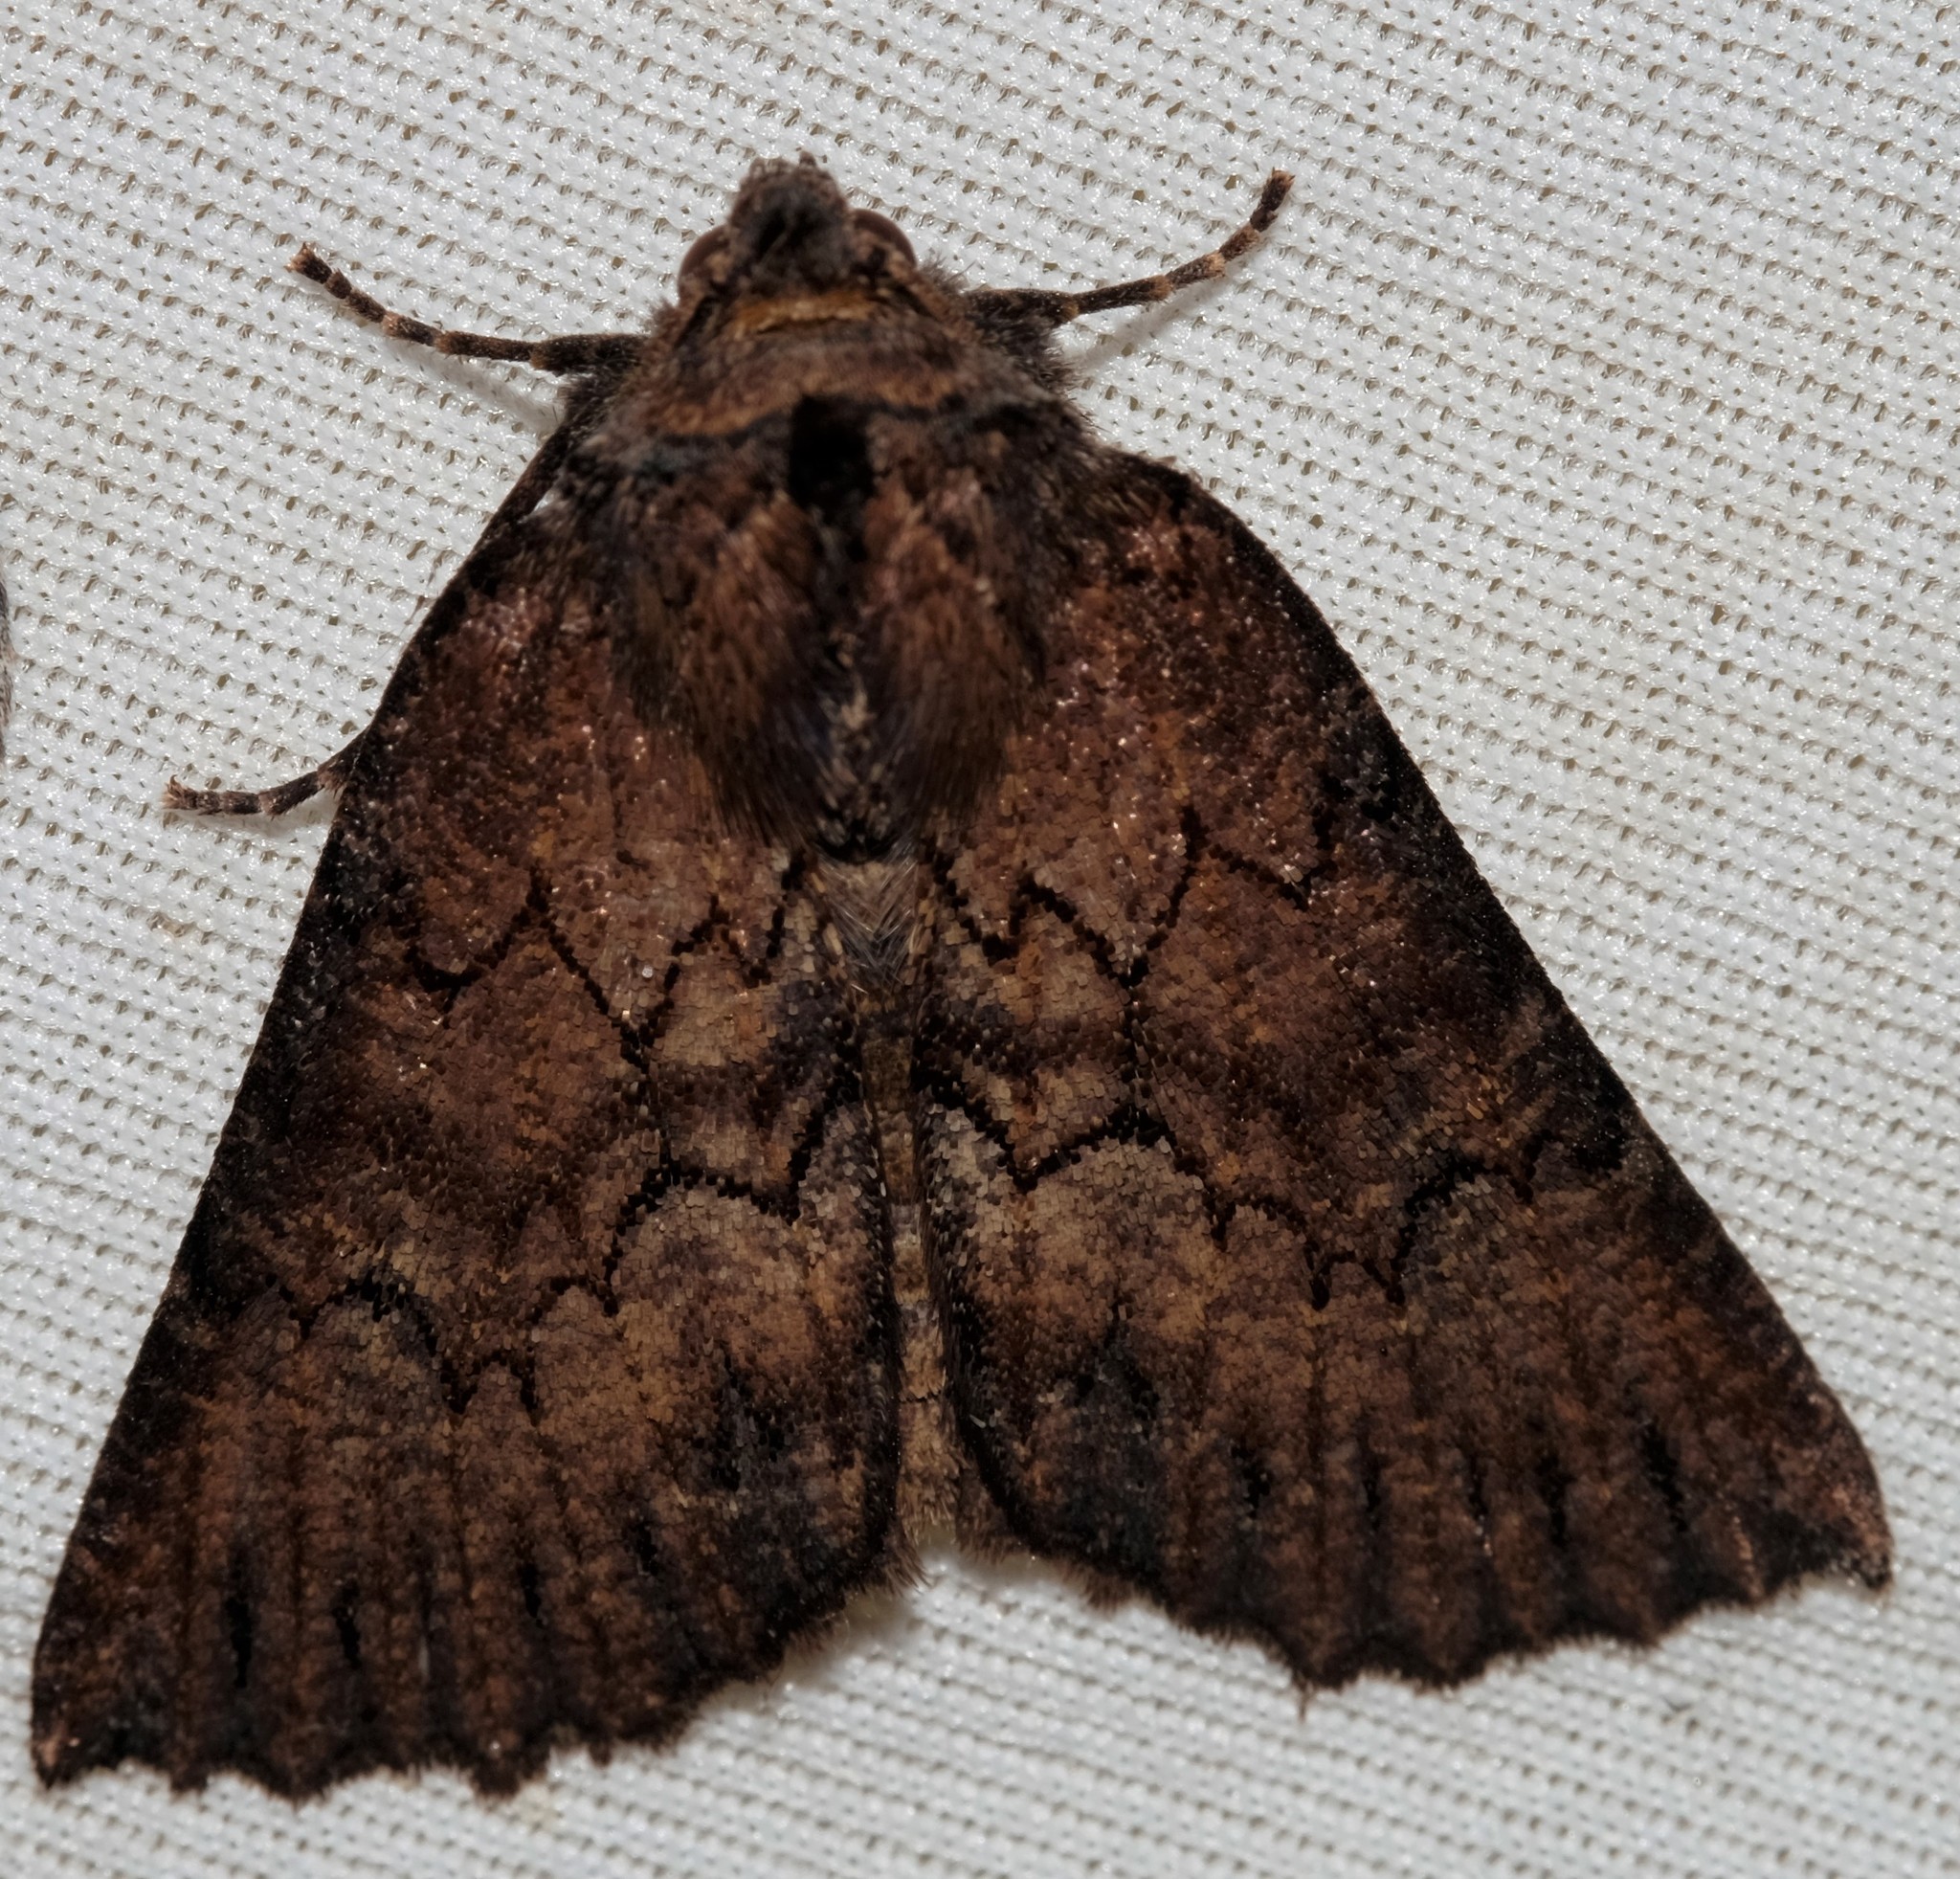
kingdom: Animalia
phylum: Arthropoda
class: Insecta
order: Lepidoptera
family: Geometridae
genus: Nisista
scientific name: Nisista serrata
